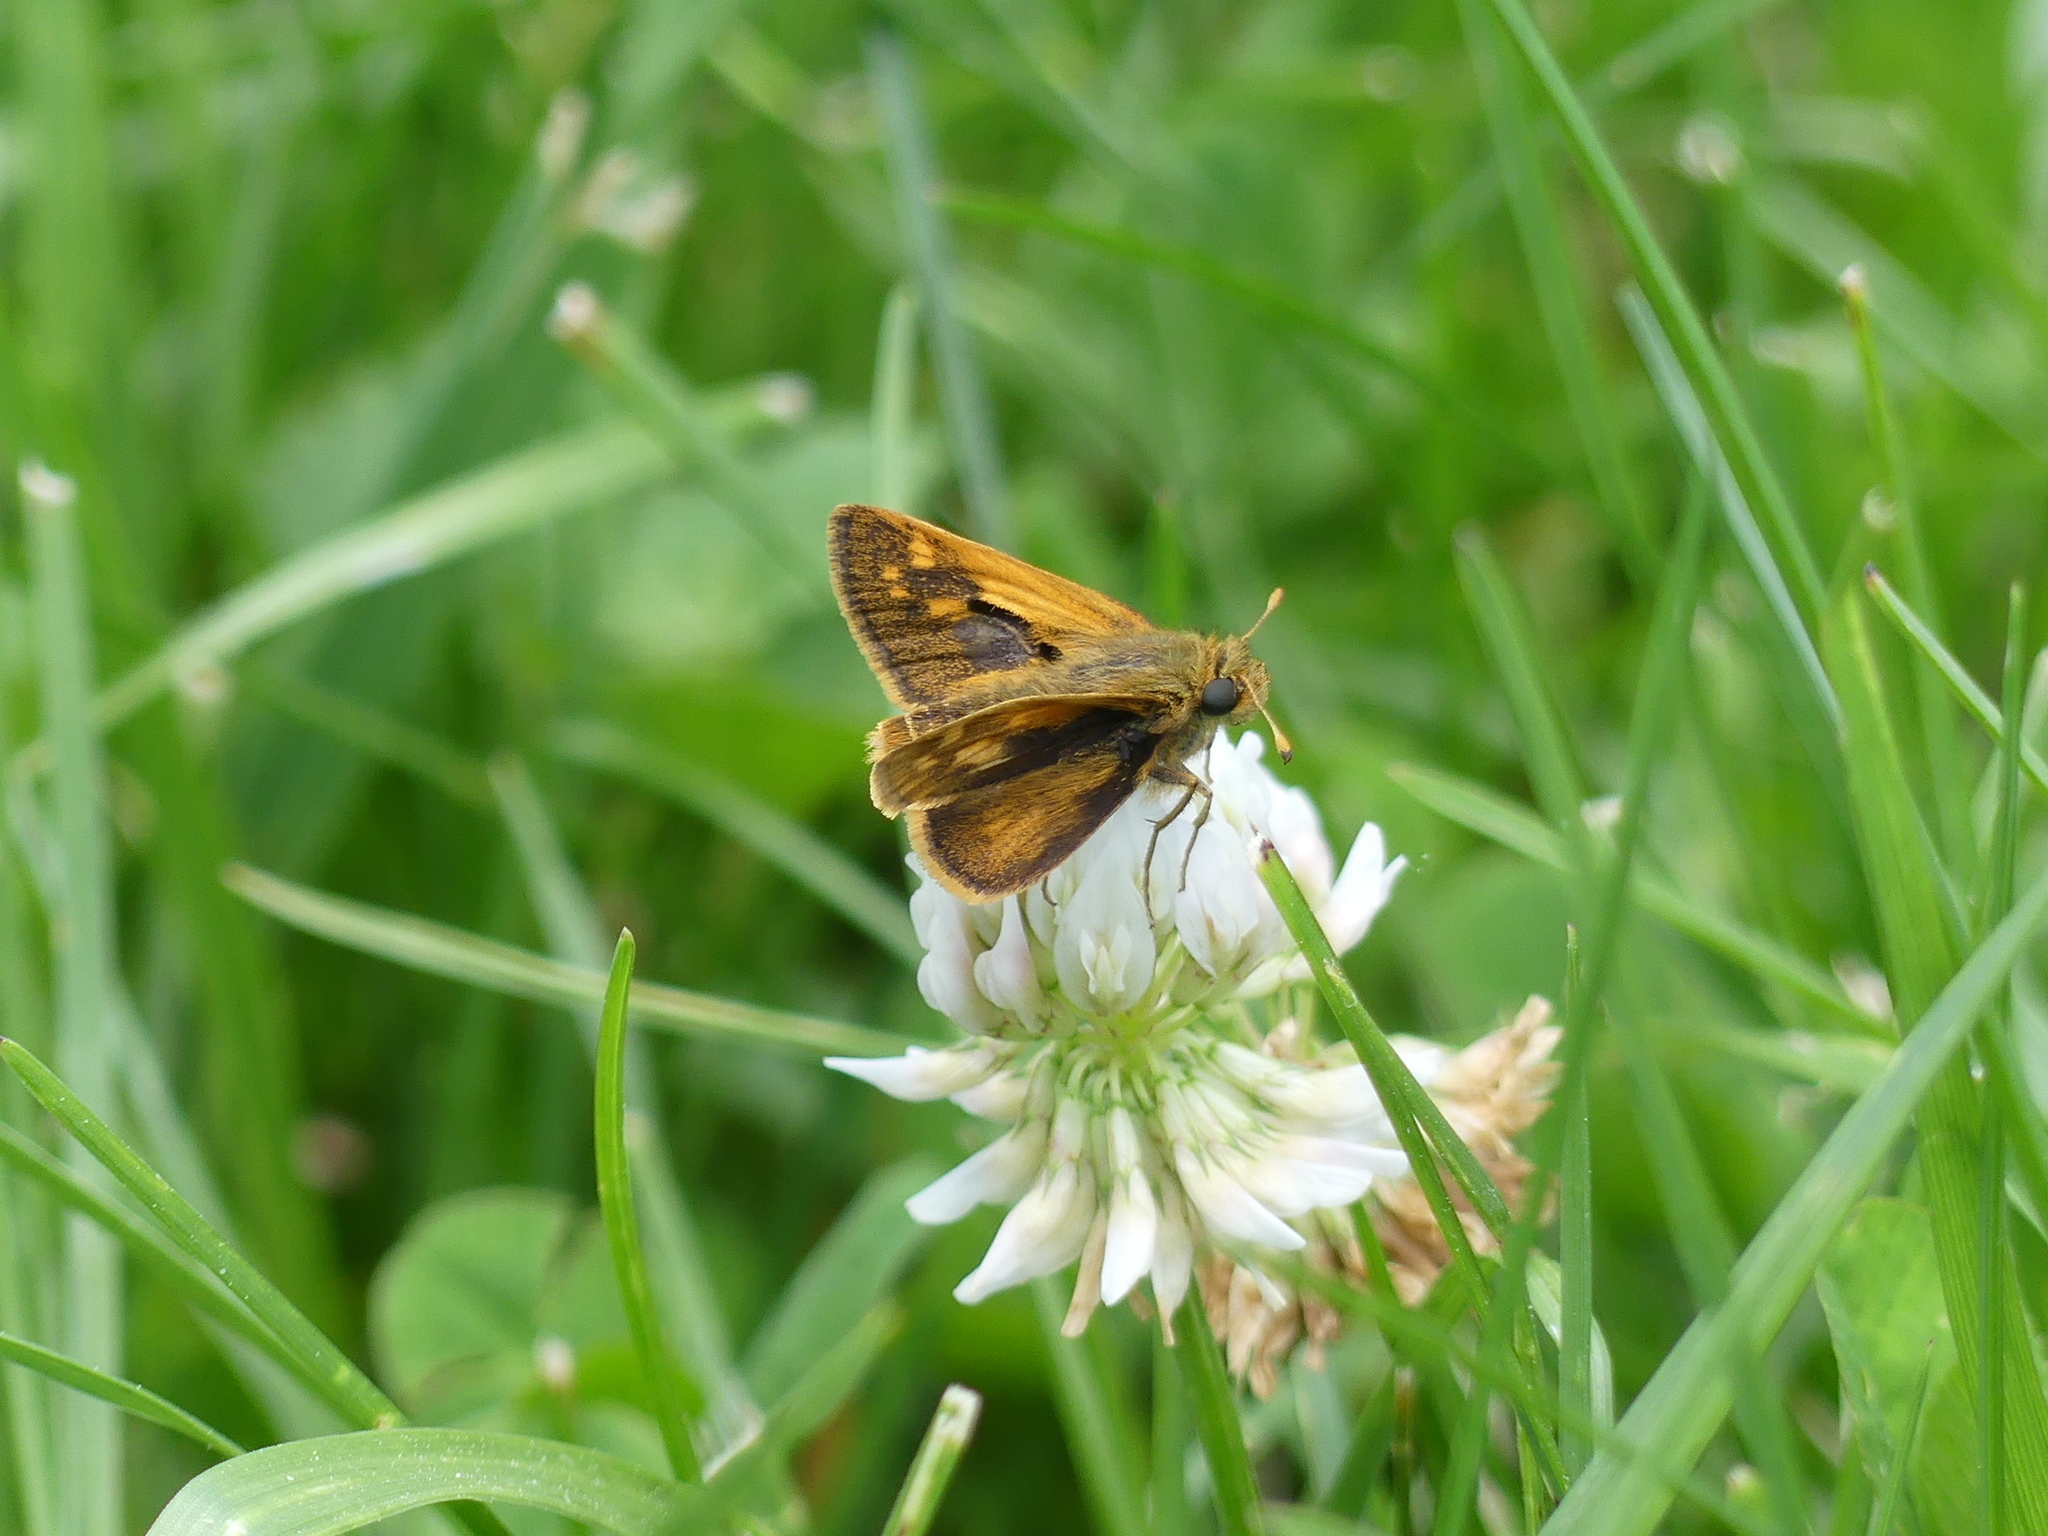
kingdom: Animalia
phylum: Arthropoda
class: Insecta
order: Lepidoptera
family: Hesperiidae
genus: Polites
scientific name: Polites coras
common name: Peck's skipper
